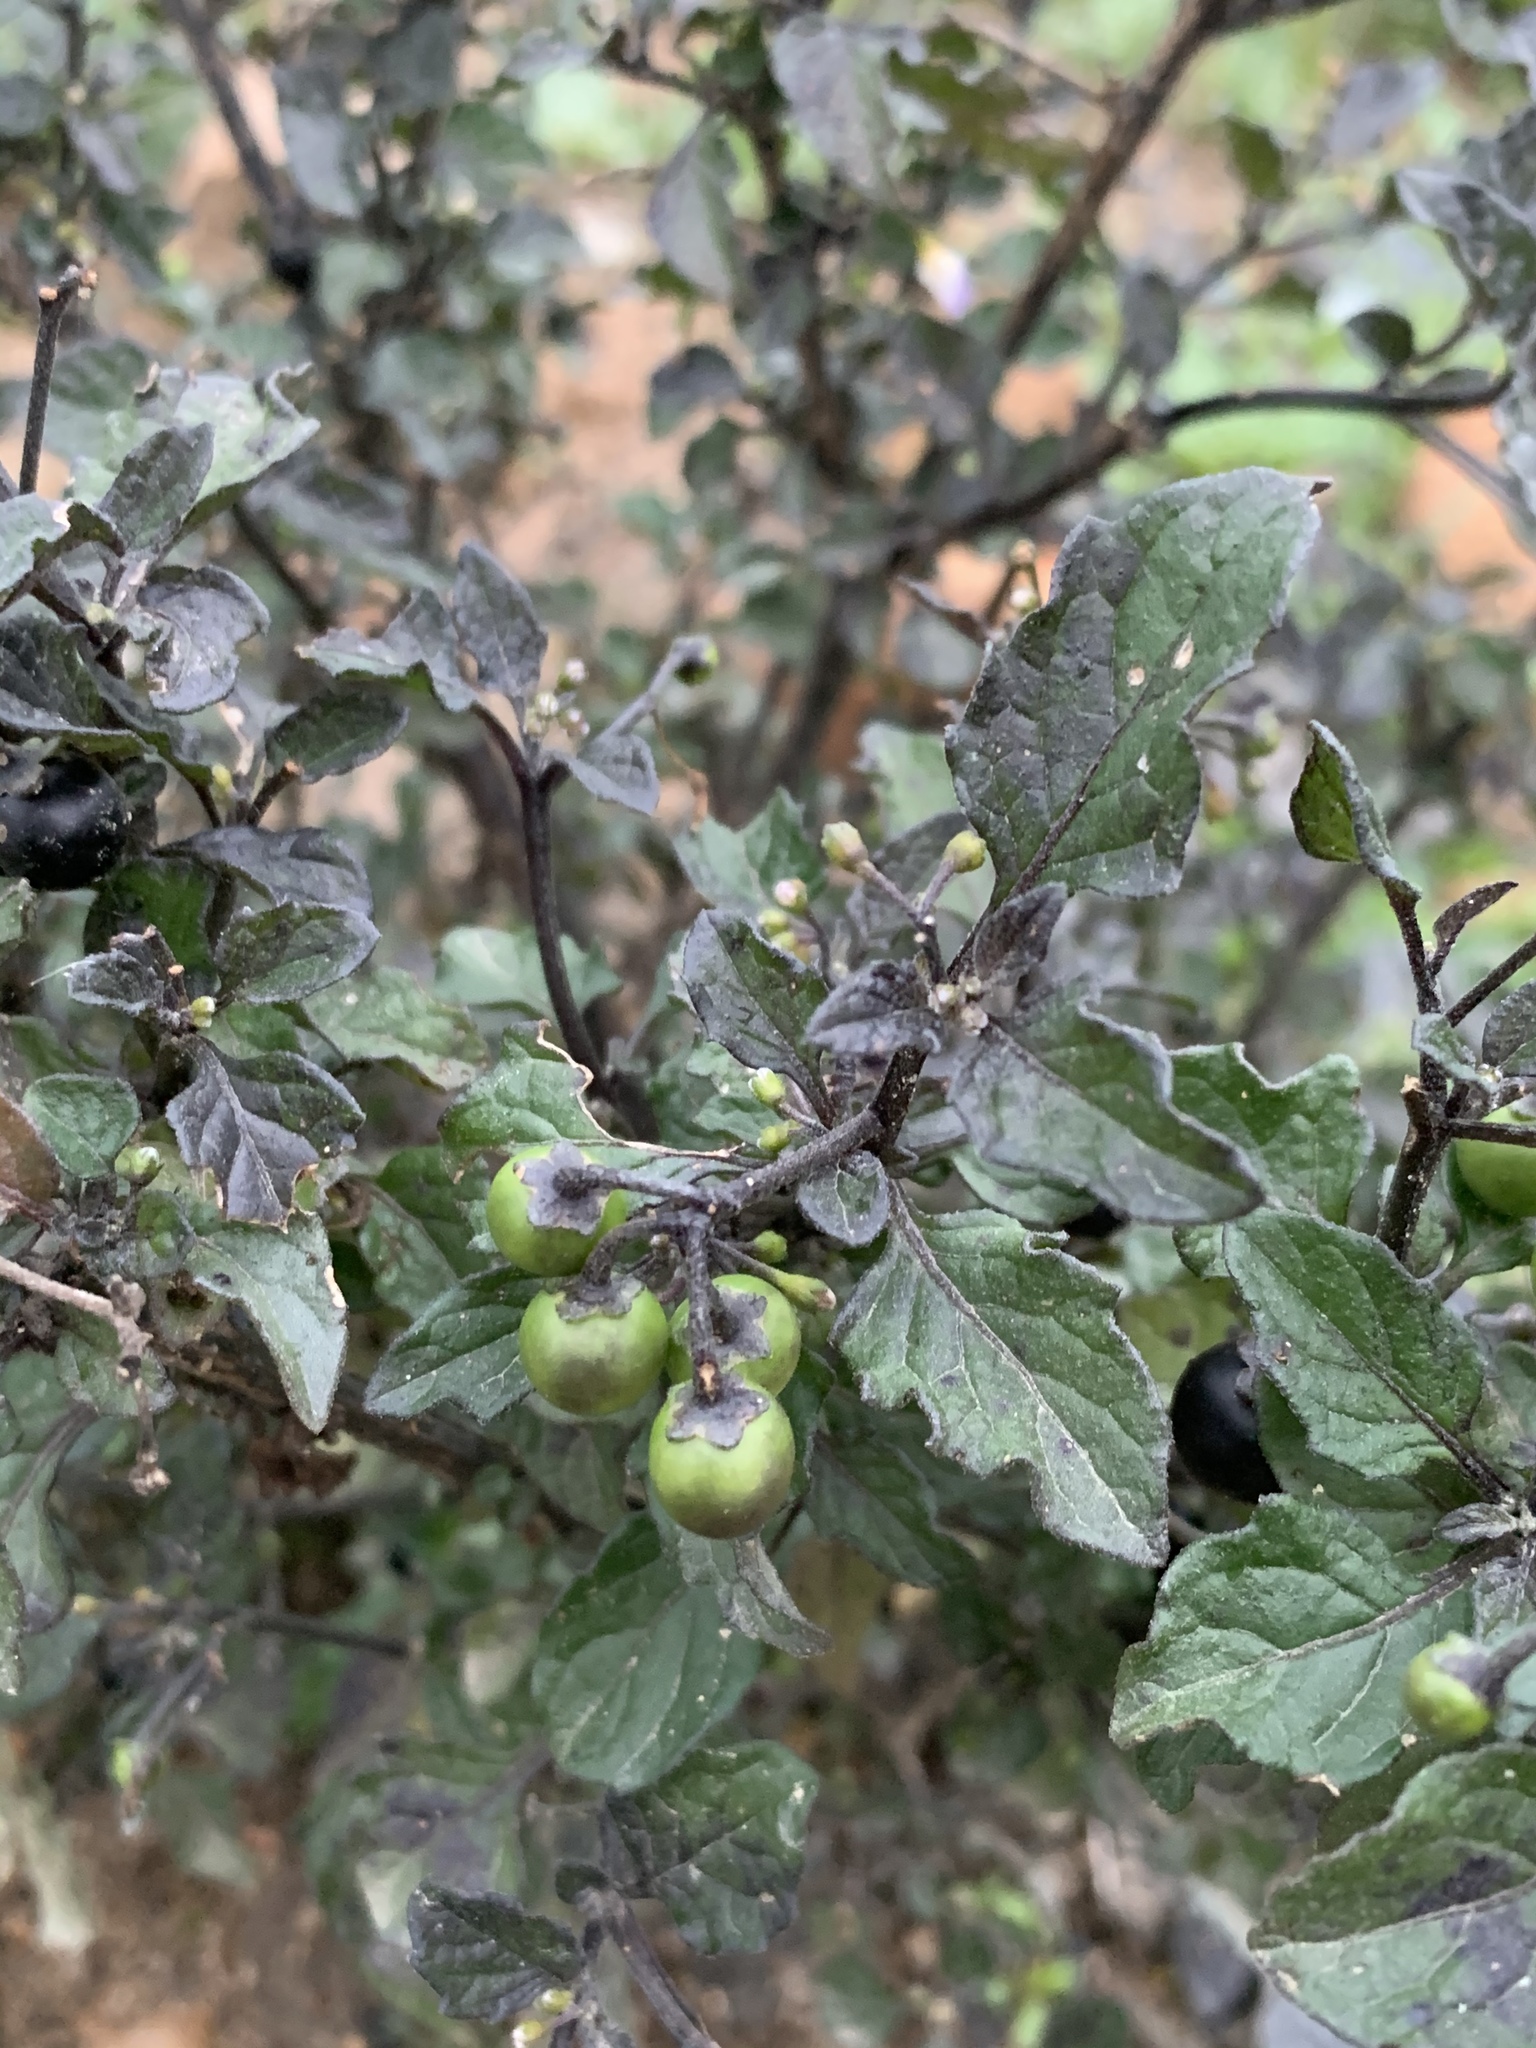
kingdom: Plantae
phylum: Tracheophyta
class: Magnoliopsida
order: Solanales
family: Solanaceae
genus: Solanum
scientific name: Solanum nigrum
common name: Black nightshade
